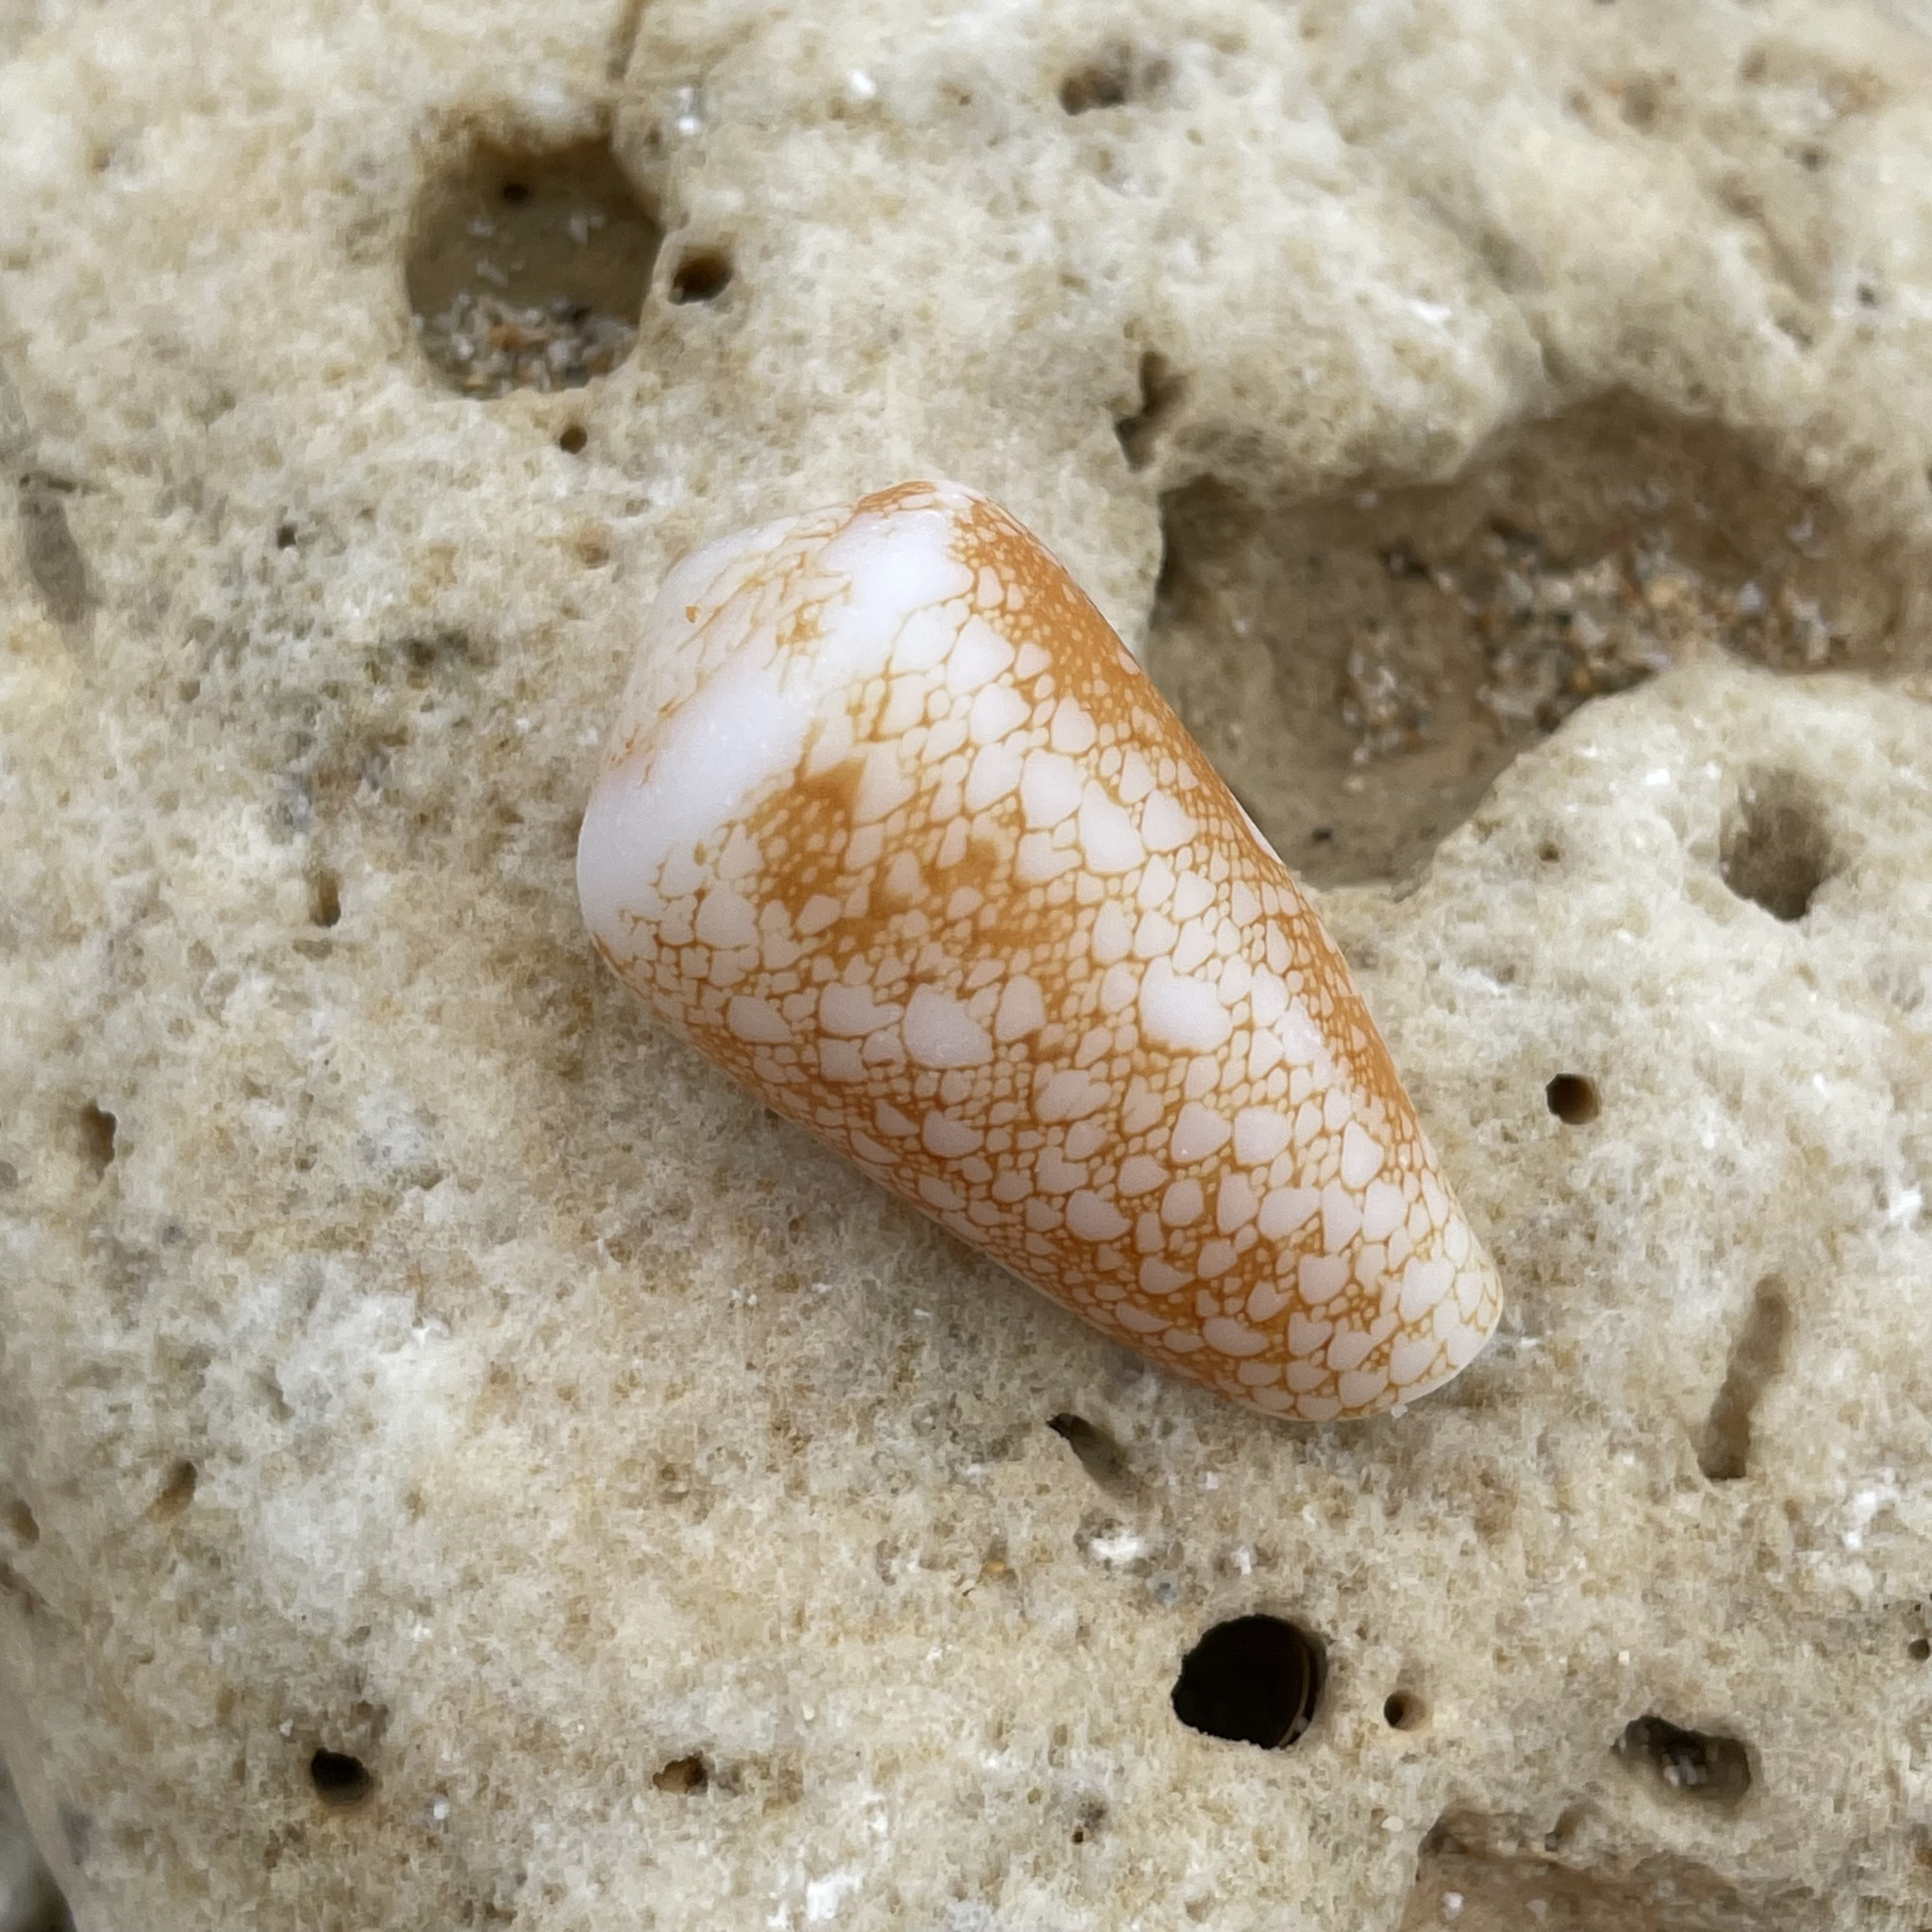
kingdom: Animalia
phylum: Mollusca
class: Gastropoda
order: Neogastropoda
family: Conidae
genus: Conus
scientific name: Conus omaria
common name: Omaria cone
